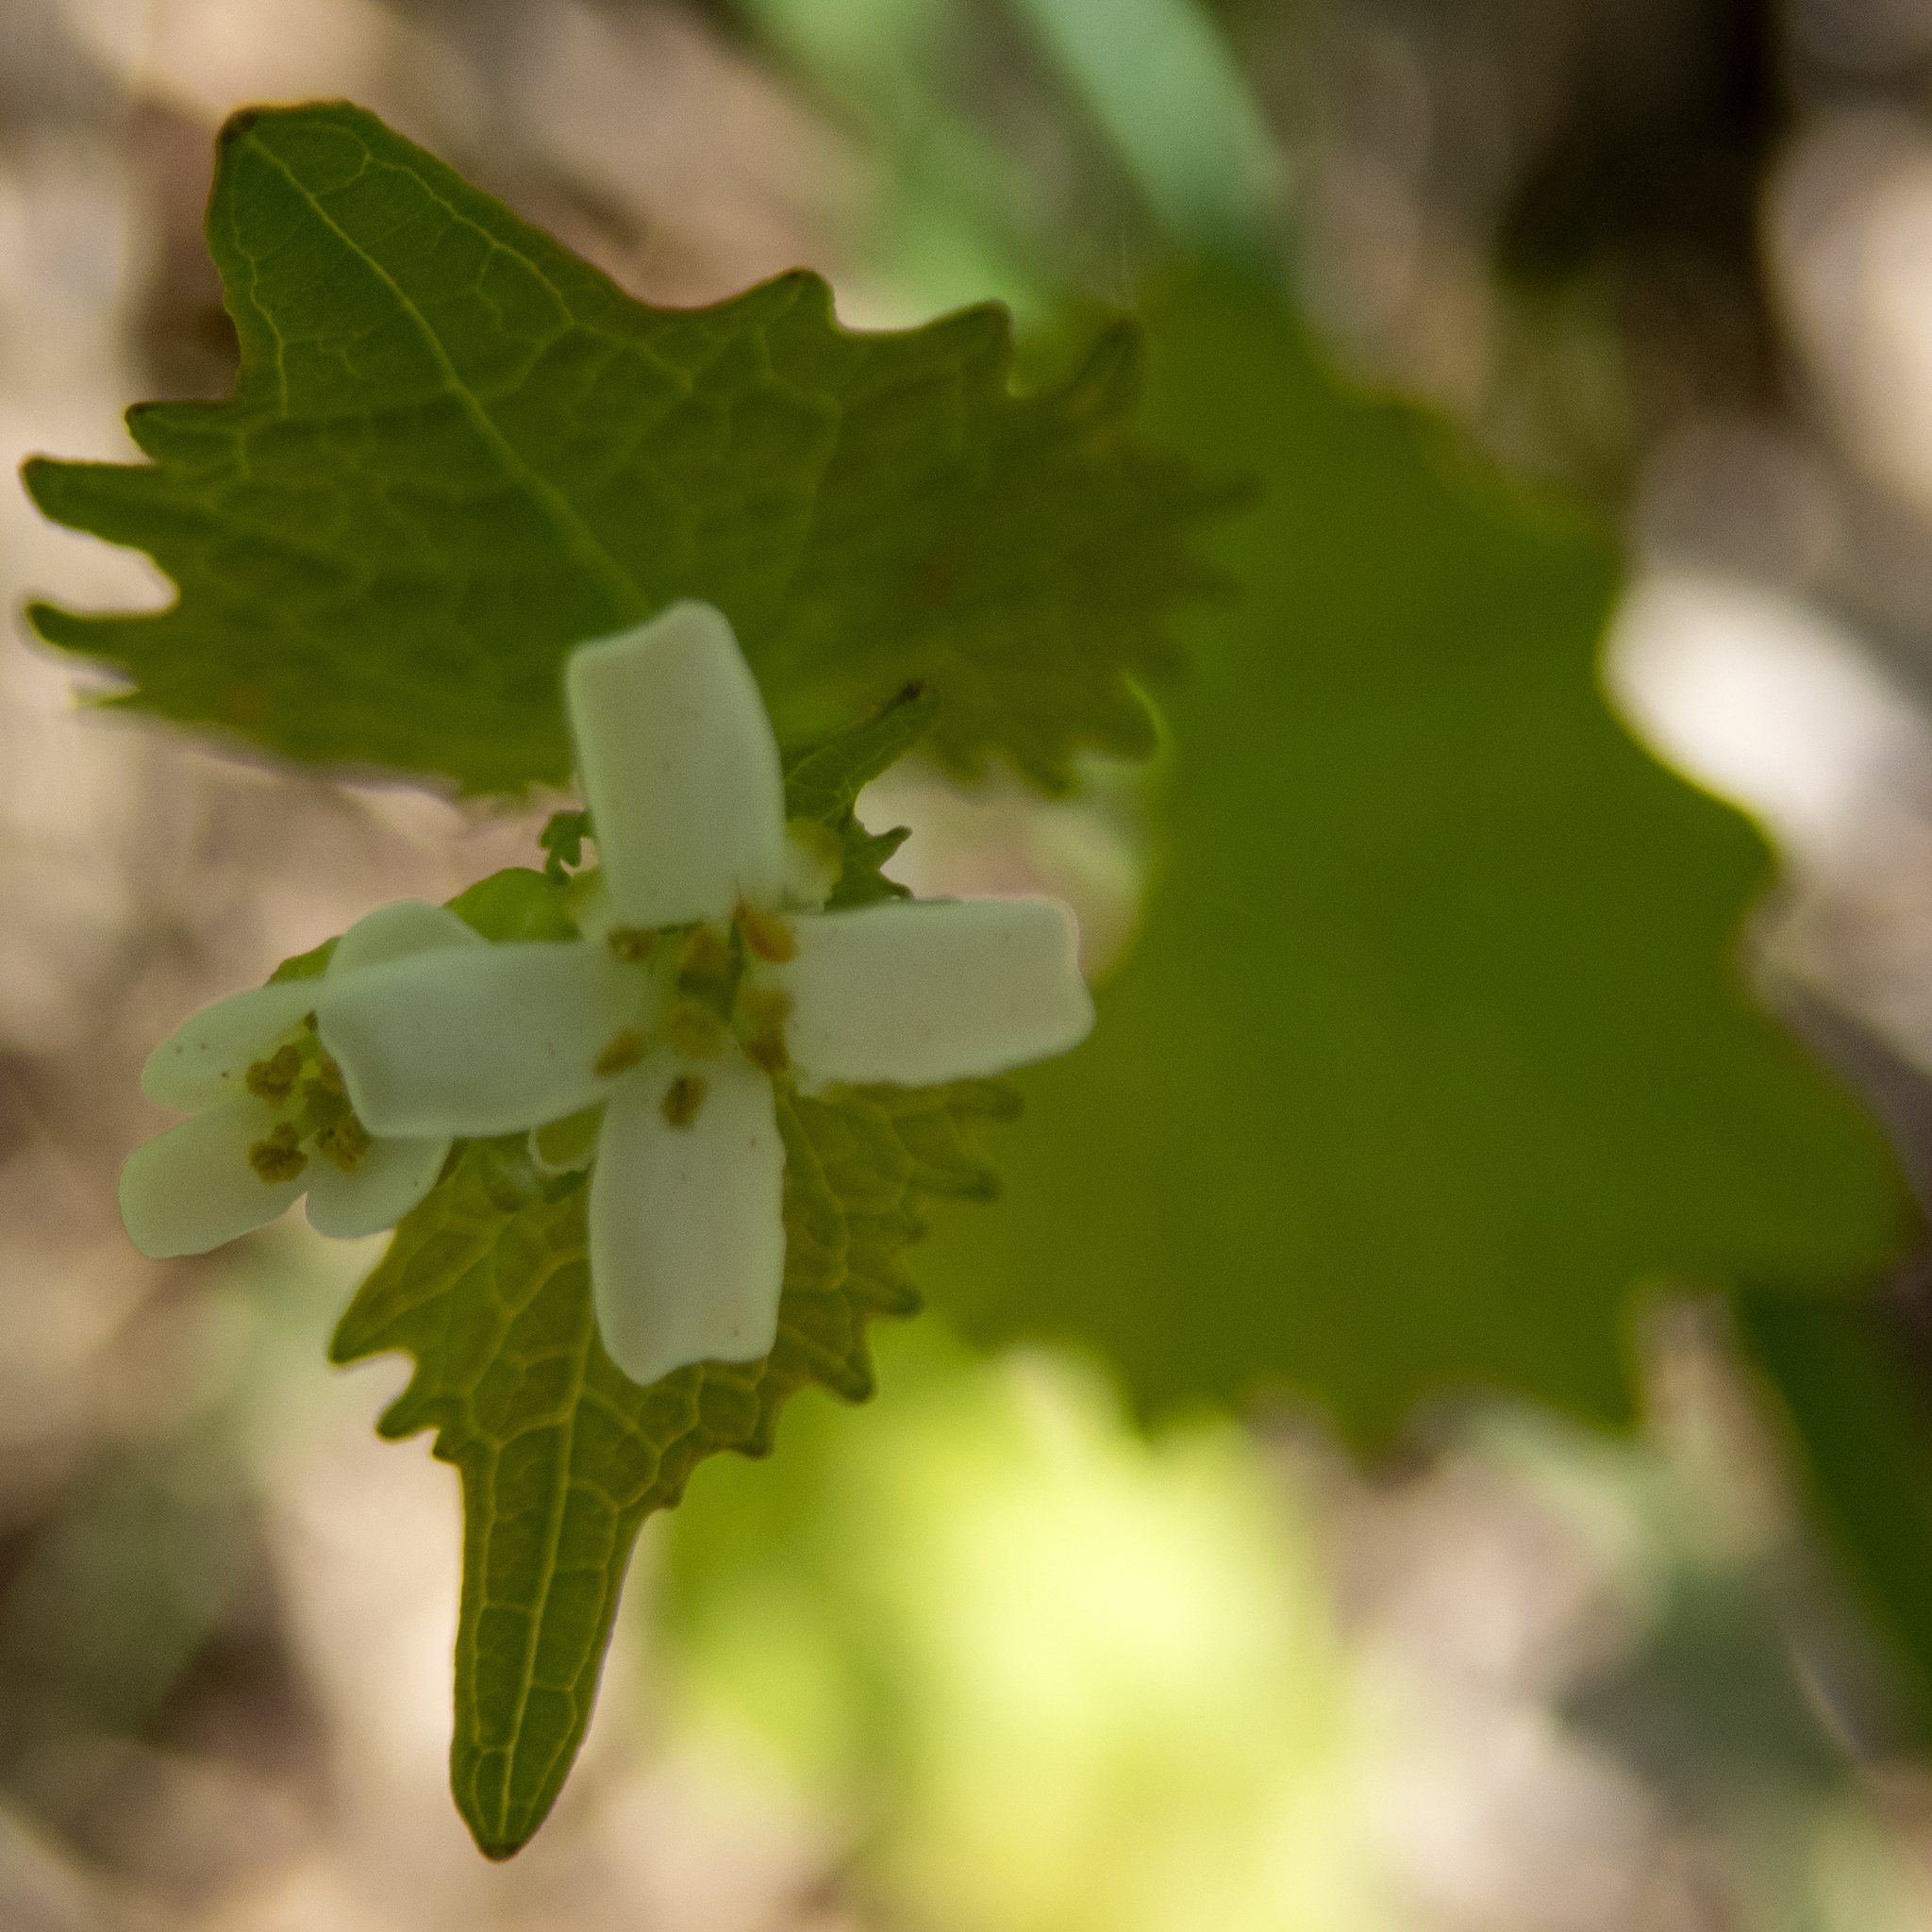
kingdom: Plantae
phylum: Tracheophyta
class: Magnoliopsida
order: Brassicales
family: Brassicaceae
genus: Alliaria
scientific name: Alliaria petiolata
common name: Garlic mustard
